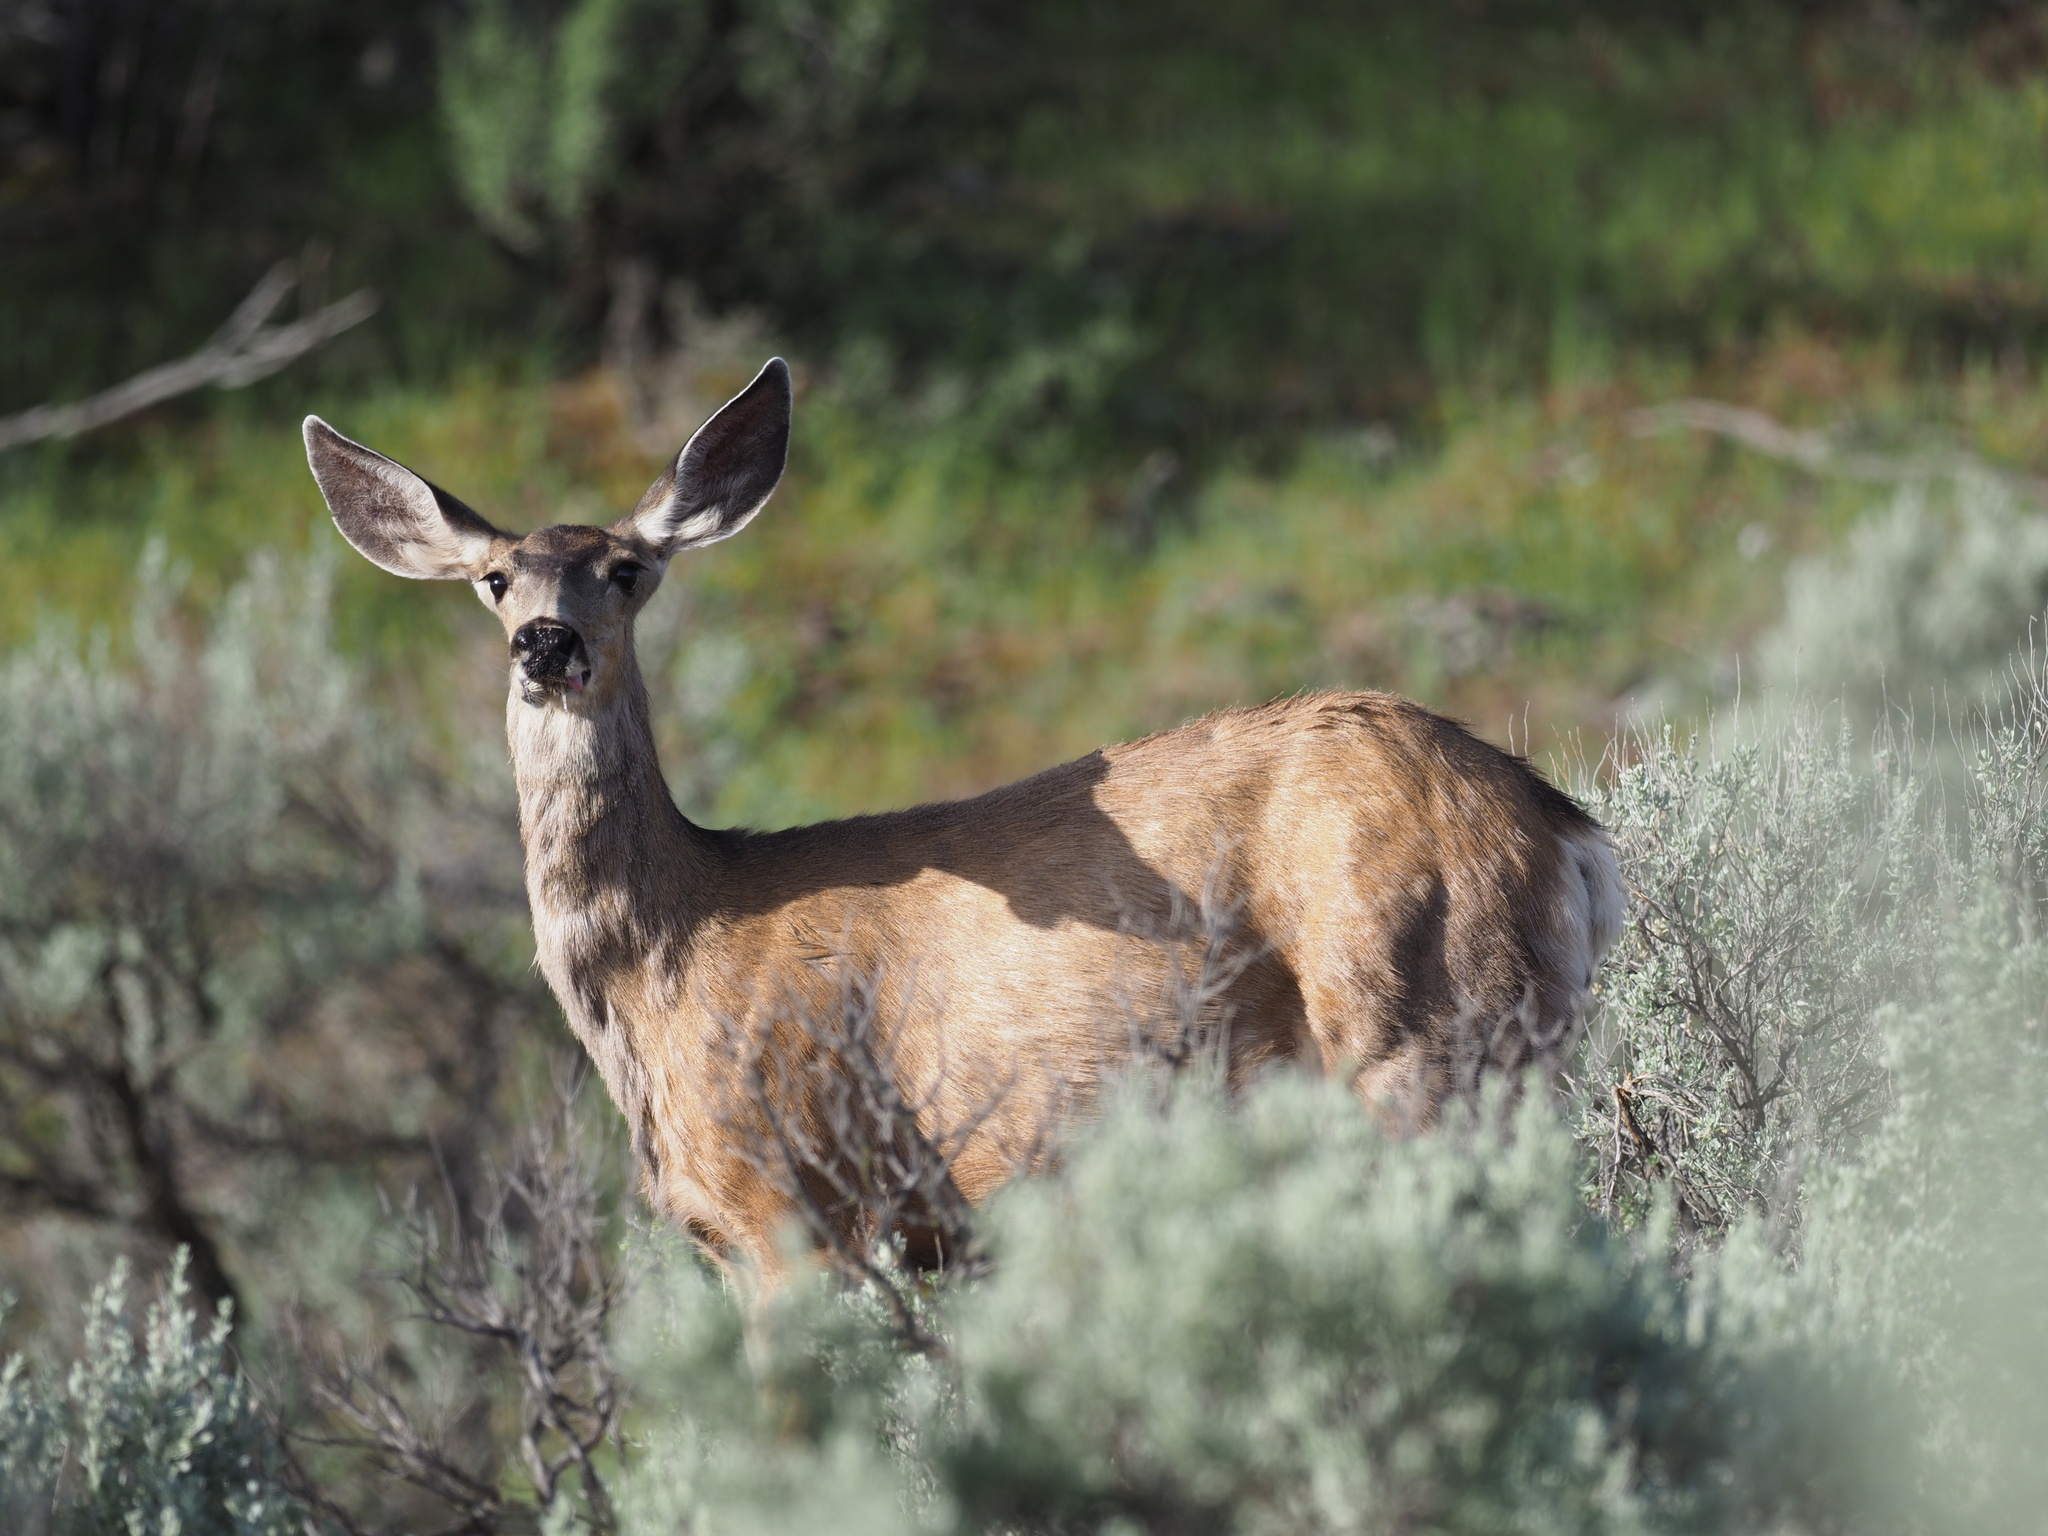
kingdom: Animalia
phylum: Chordata
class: Mammalia
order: Artiodactyla
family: Cervidae
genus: Odocoileus
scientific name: Odocoileus hemionus
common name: Mule deer
